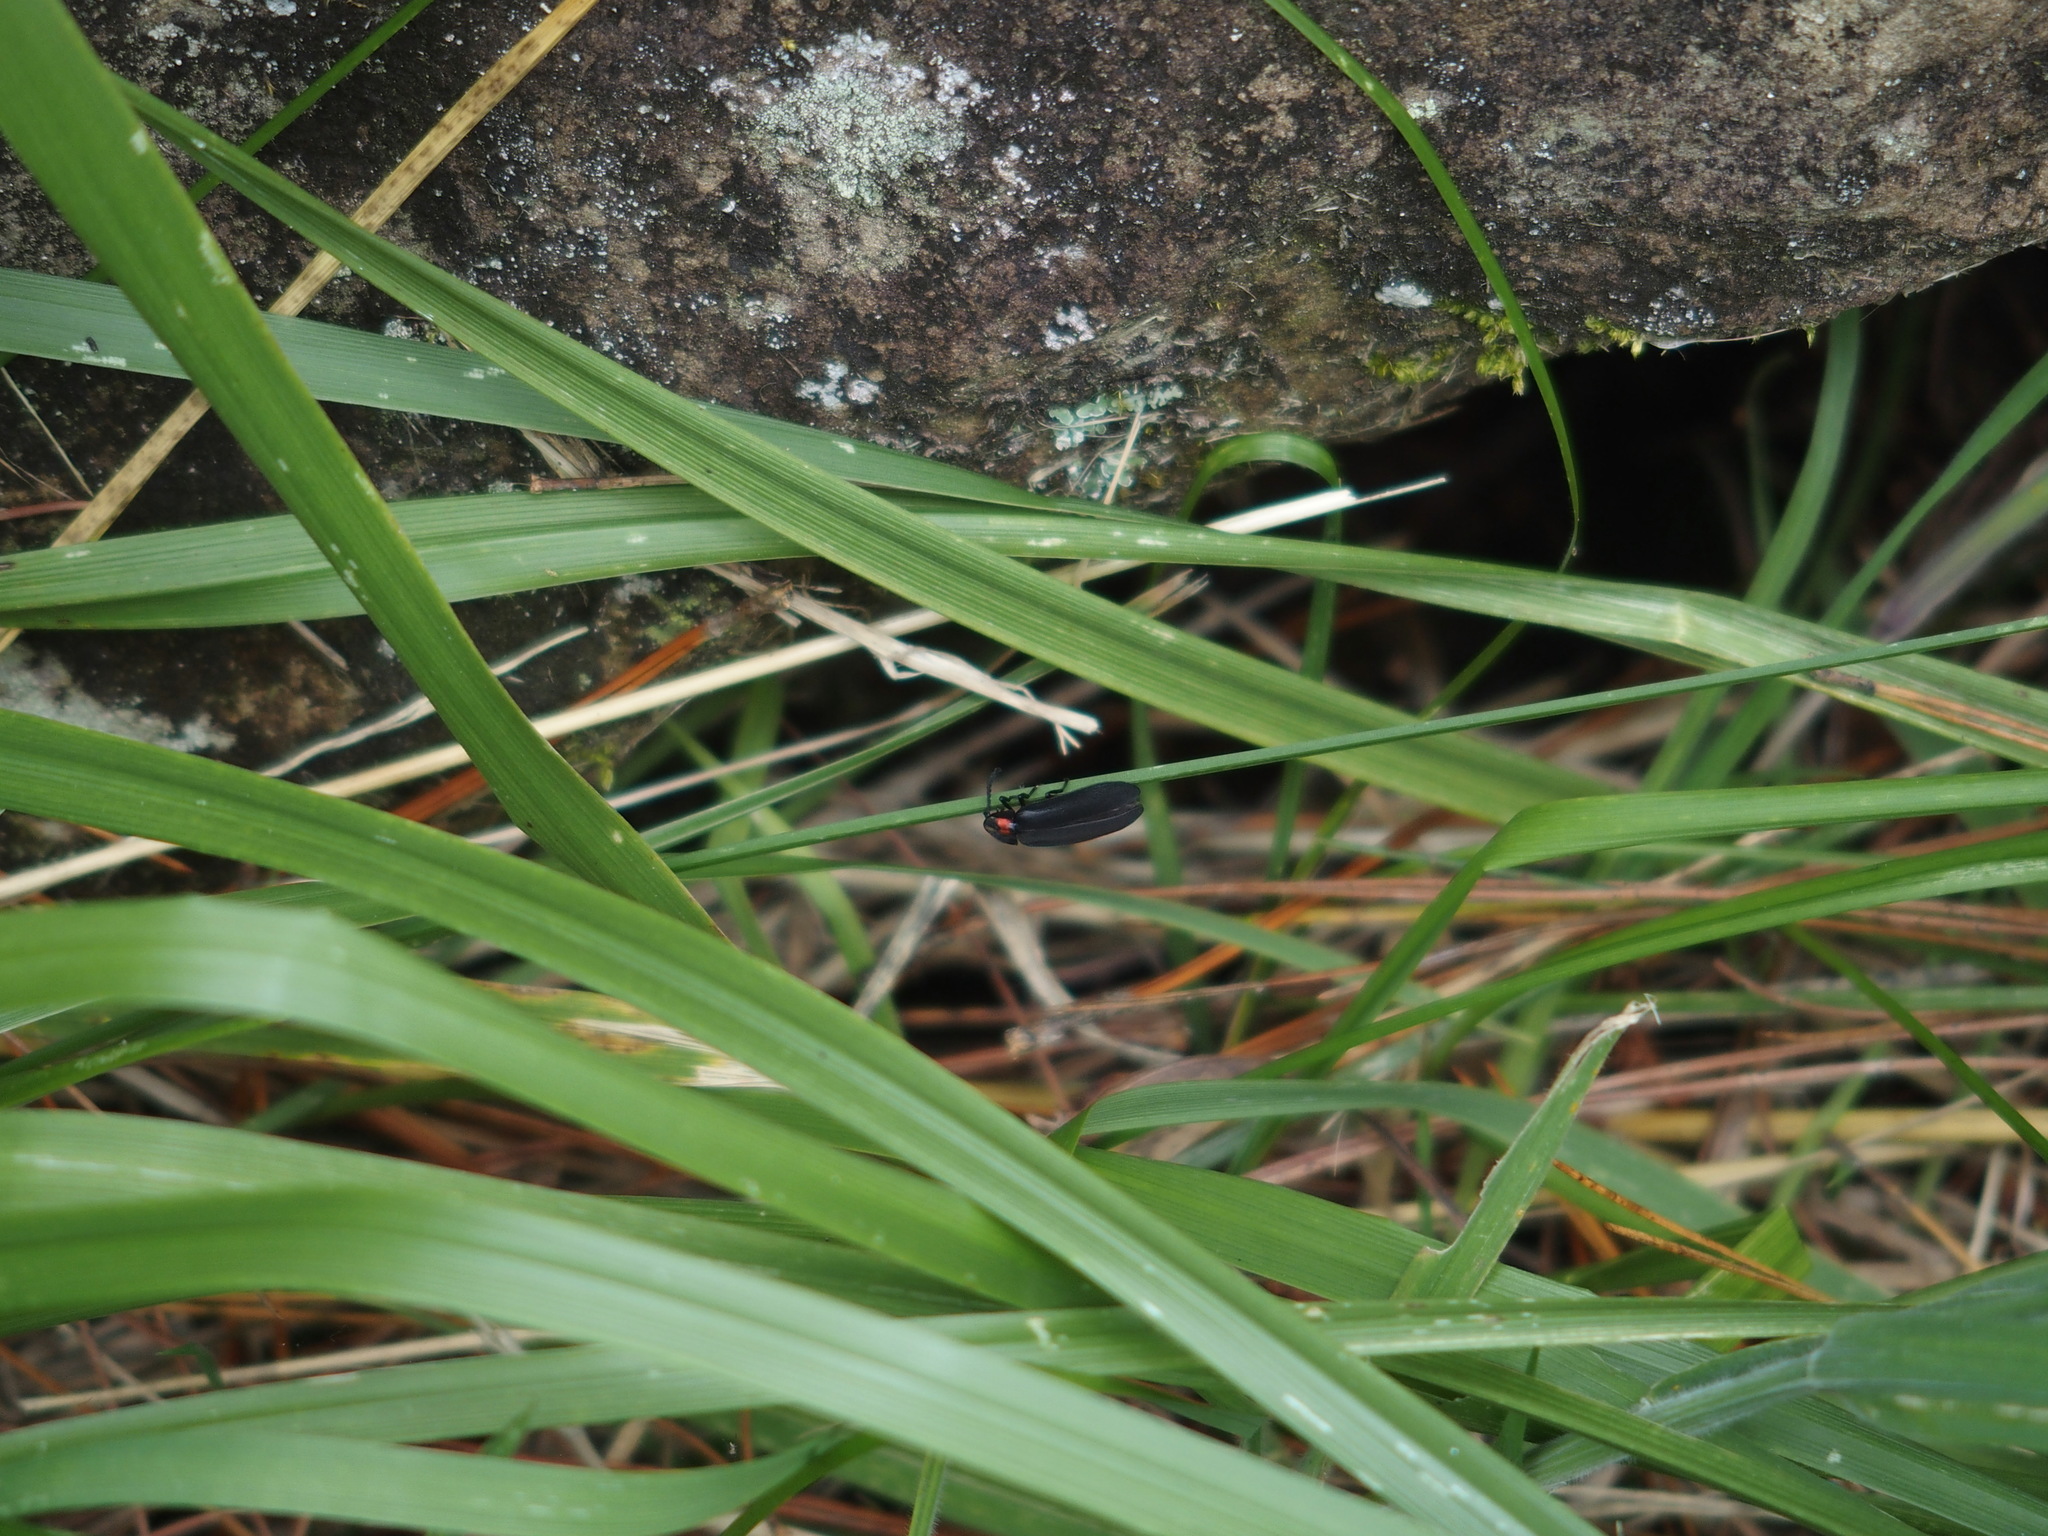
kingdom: Animalia
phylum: Arthropoda
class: Insecta
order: Coleoptera
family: Lampyridae
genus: Pyrocoelia
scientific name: Pyrocoelia formosana
